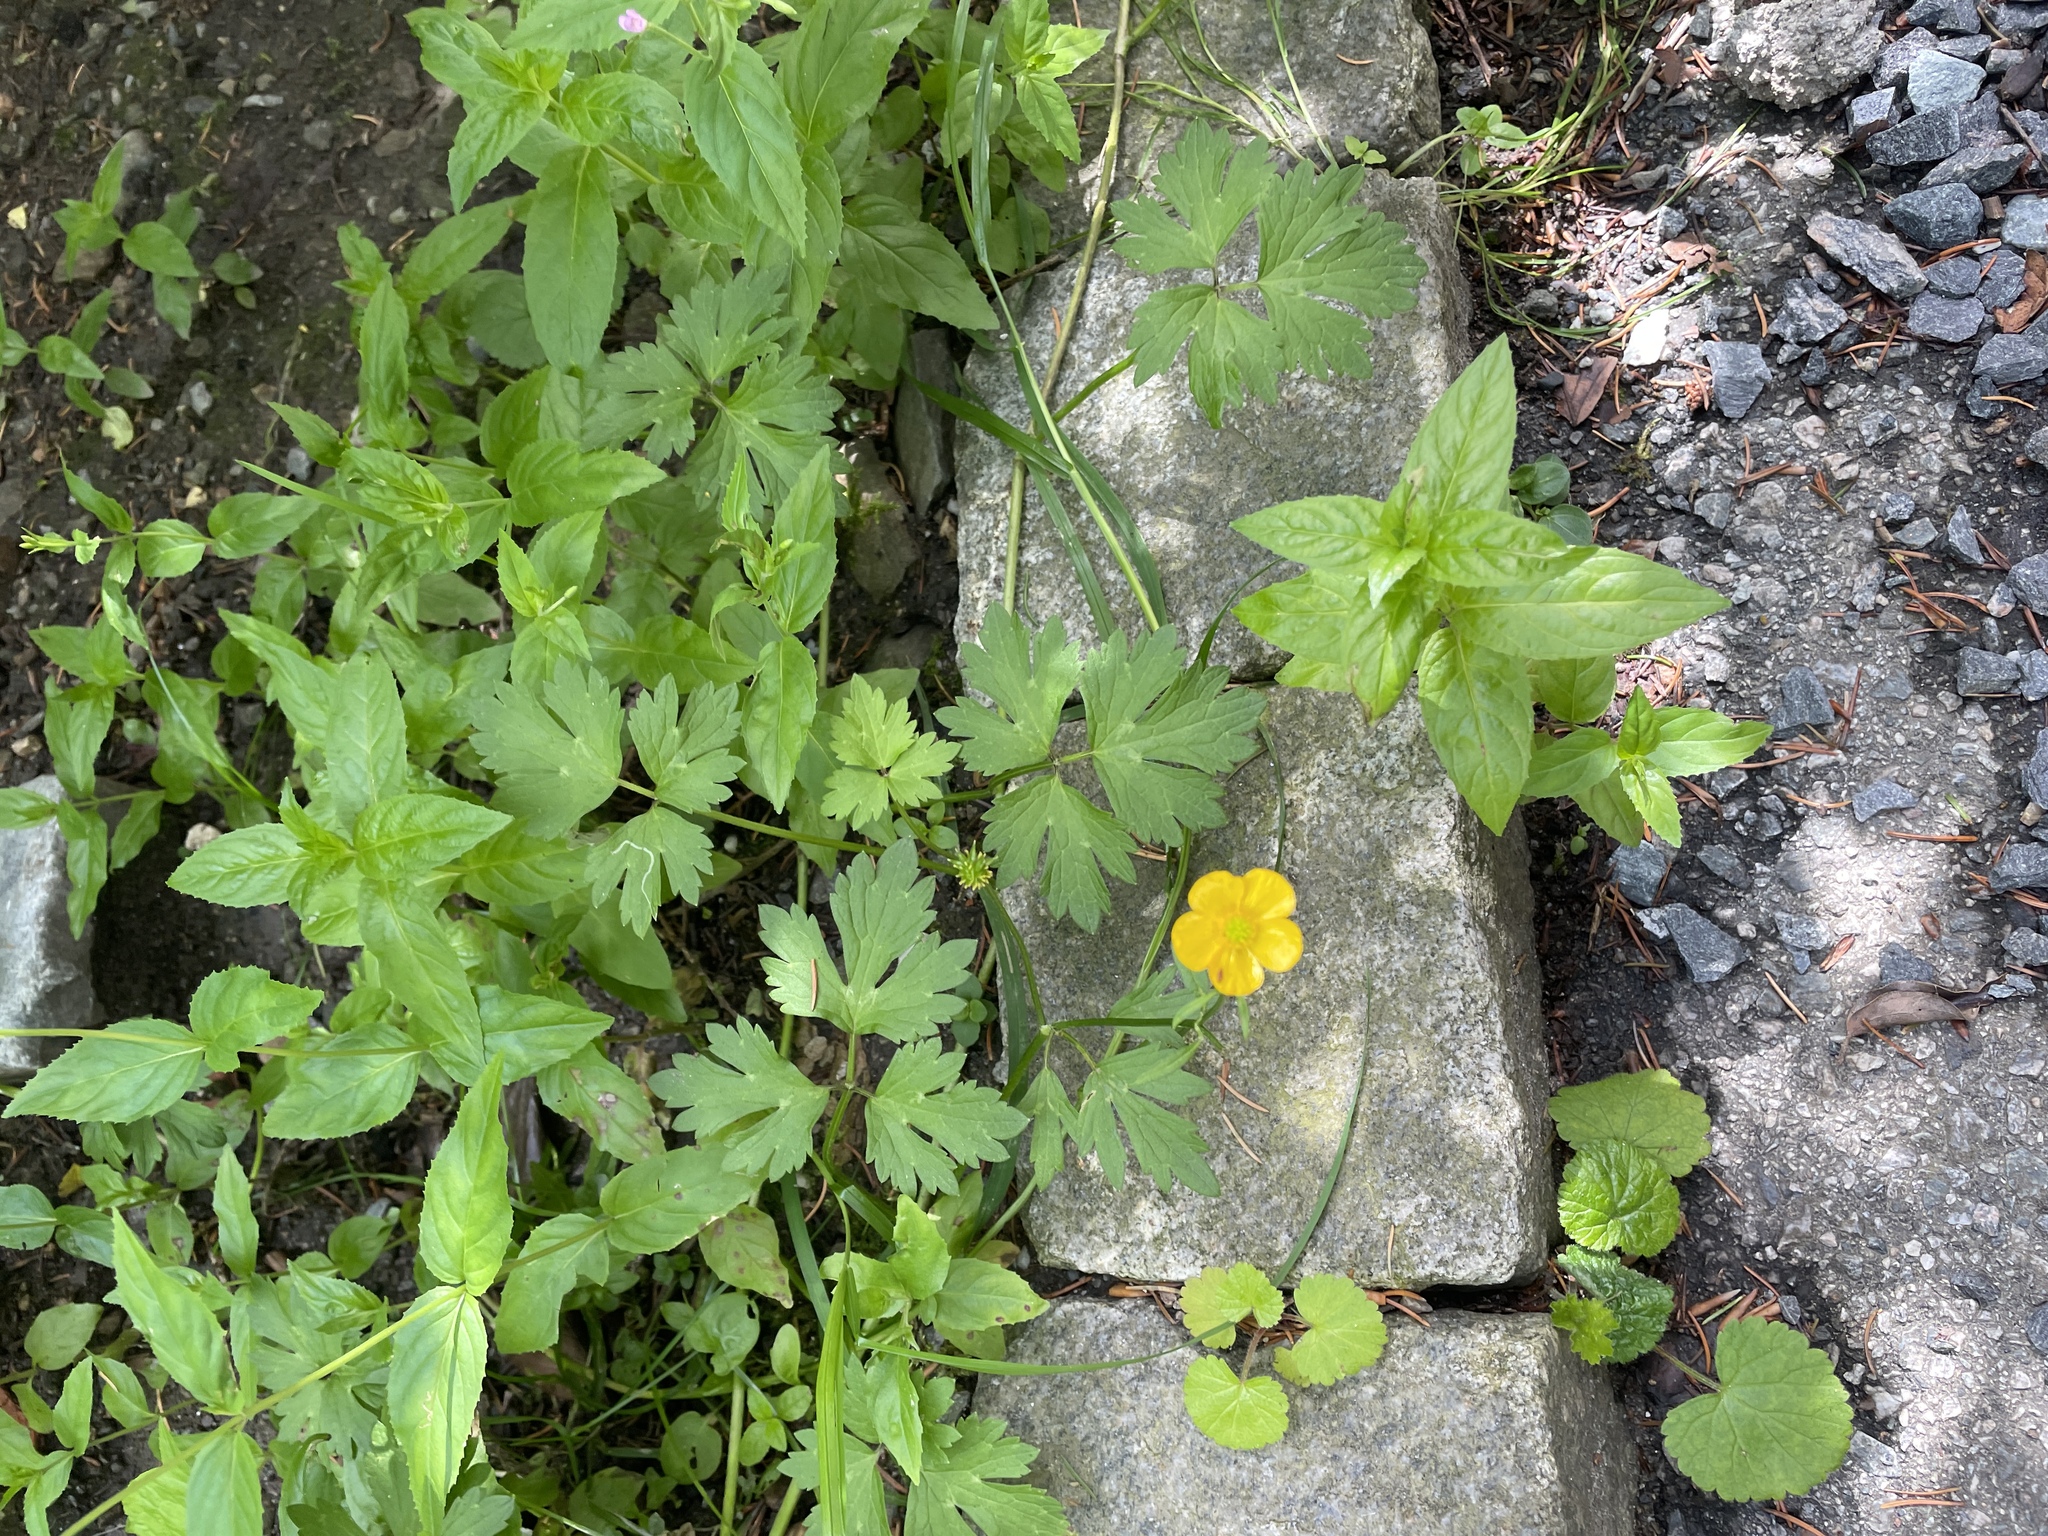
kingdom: Plantae
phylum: Tracheophyta
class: Magnoliopsida
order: Ranunculales
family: Ranunculaceae
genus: Ranunculus
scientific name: Ranunculus repens
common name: Creeping buttercup
